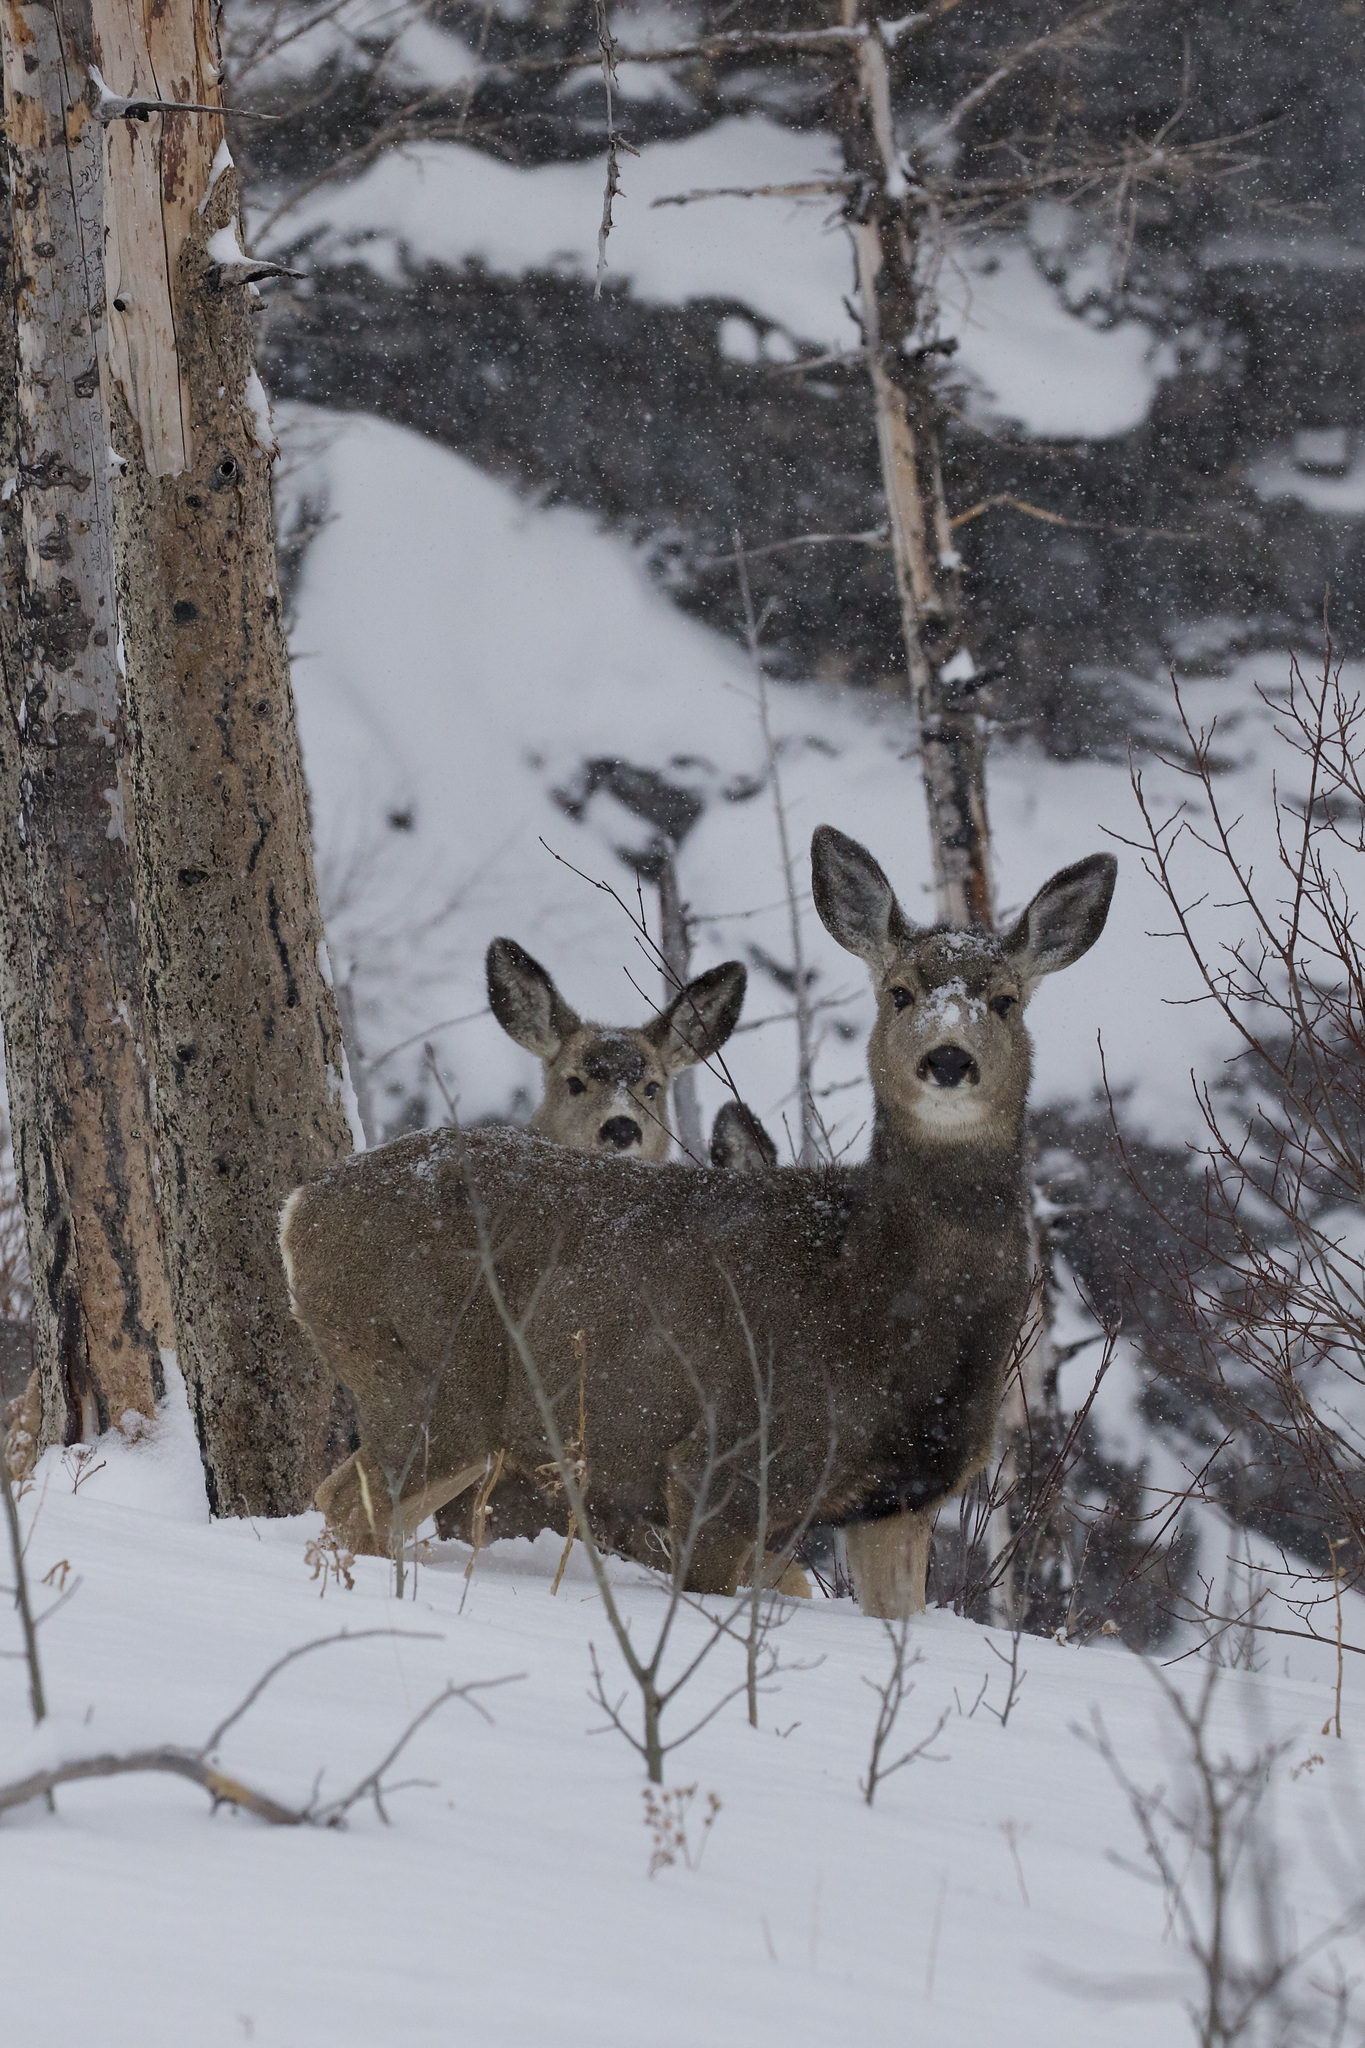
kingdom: Animalia
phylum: Chordata
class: Mammalia
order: Artiodactyla
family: Cervidae
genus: Odocoileus
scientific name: Odocoileus hemionus
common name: Mule deer
